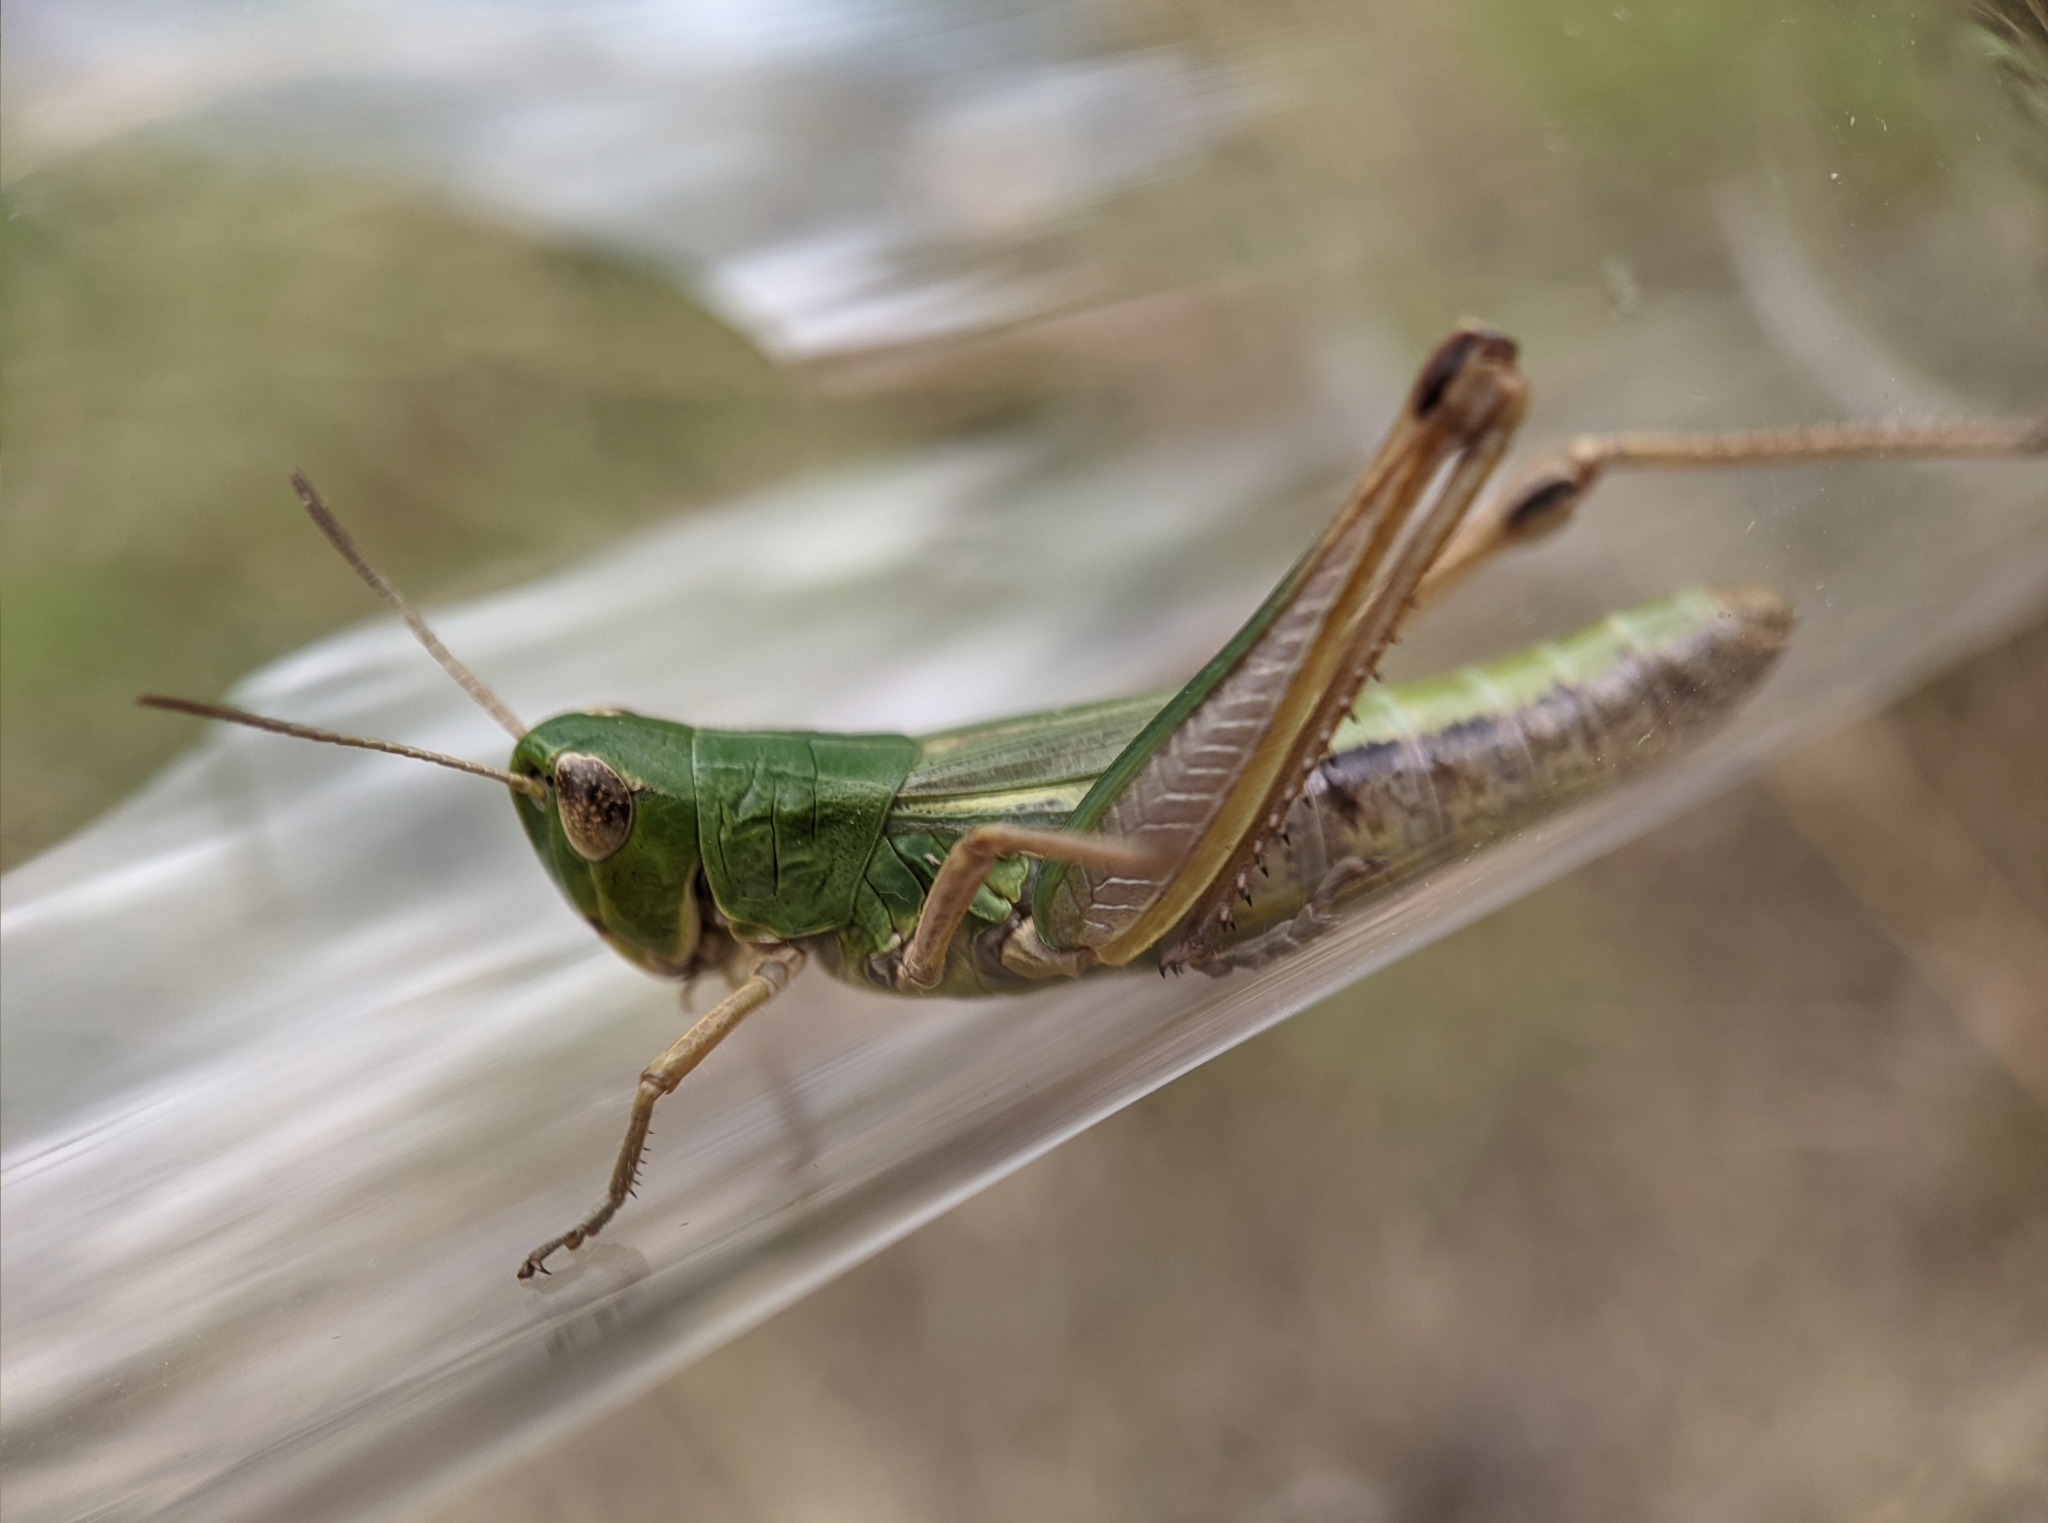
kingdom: Animalia
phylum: Arthropoda
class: Insecta
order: Orthoptera
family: Acrididae
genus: Pseudochorthippus
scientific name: Pseudochorthippus parallelus
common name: Meadow grasshopper
